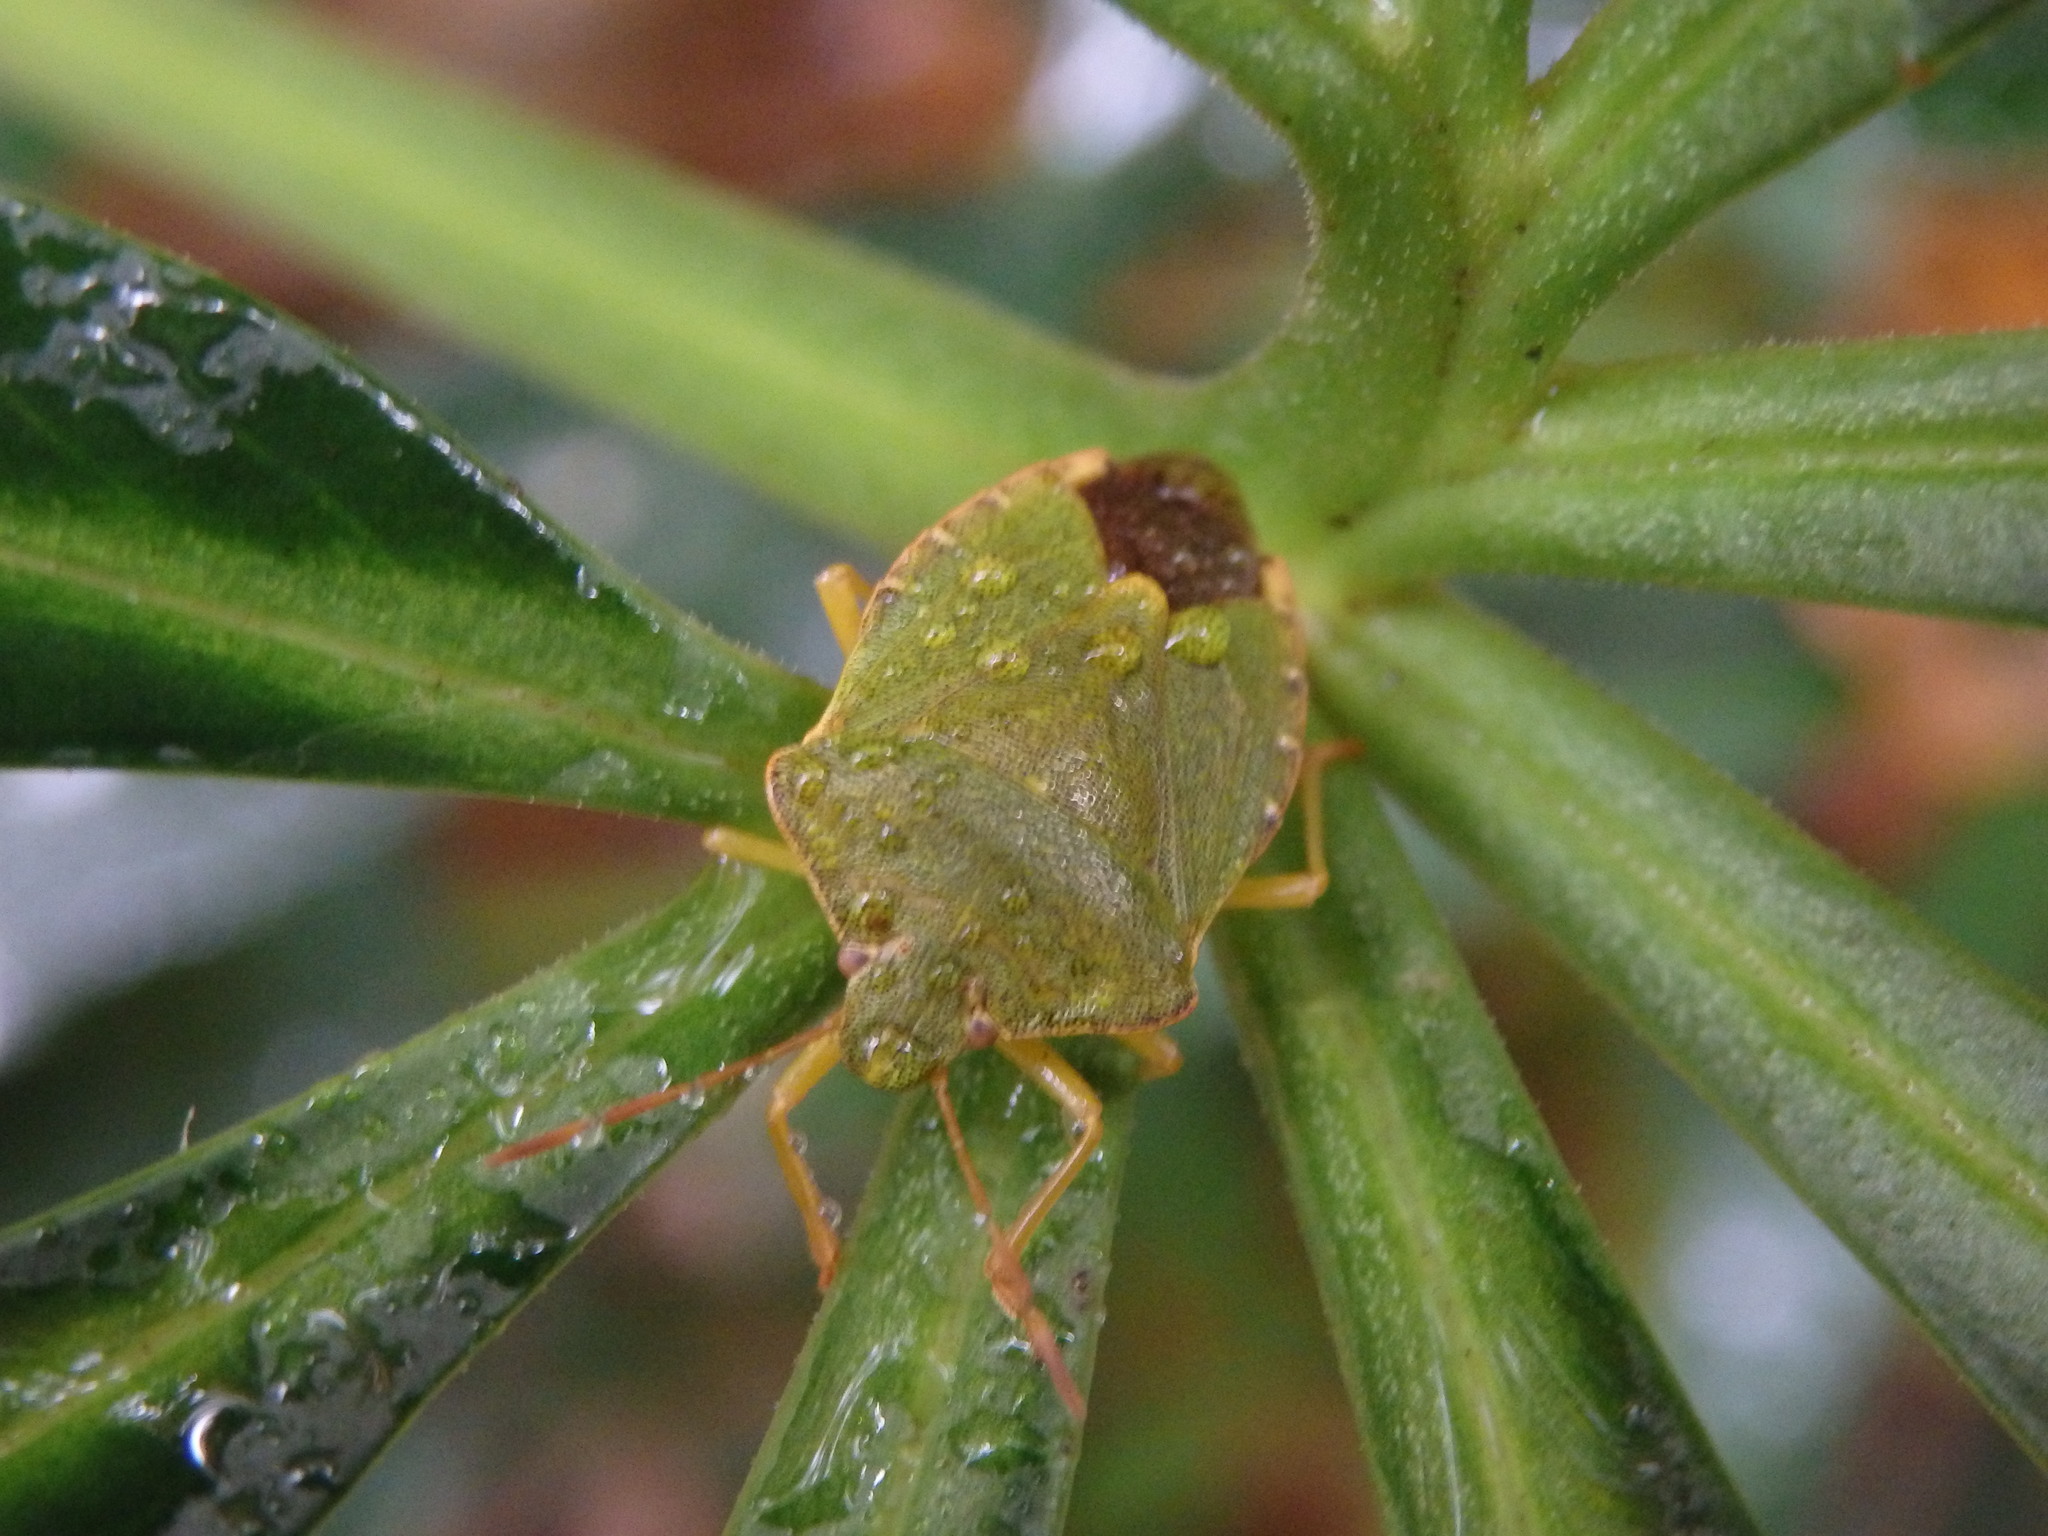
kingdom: Animalia
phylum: Arthropoda
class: Insecta
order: Hemiptera
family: Pentatomidae
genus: Palomena
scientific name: Palomena prasina
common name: Green shieldbug
